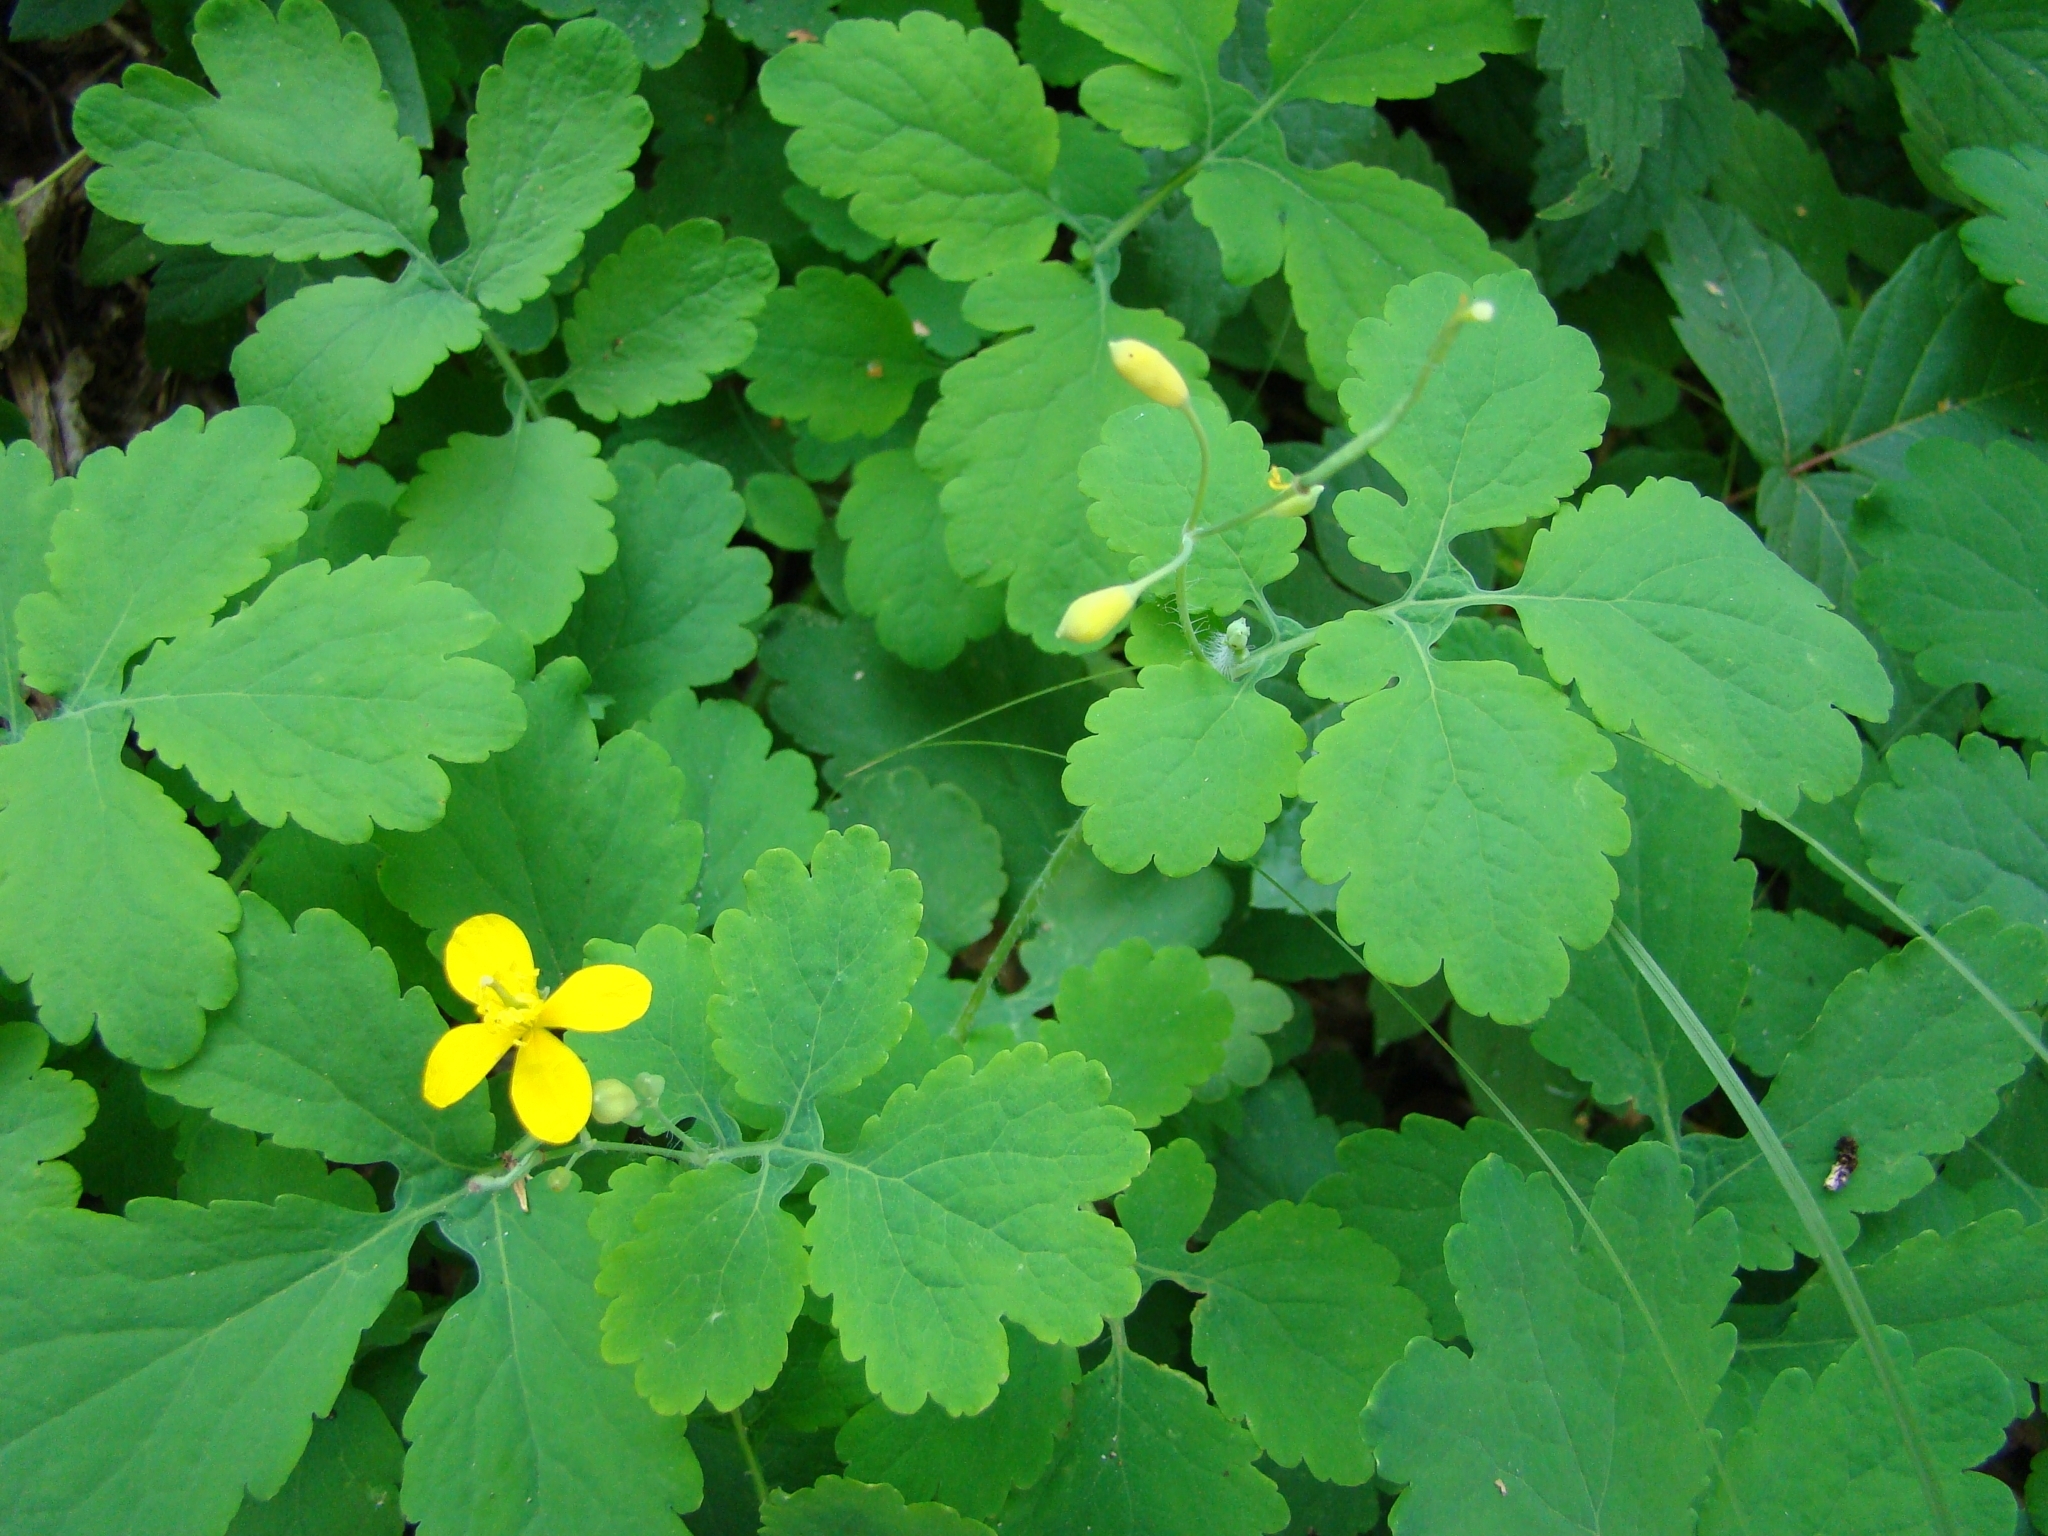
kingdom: Plantae
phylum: Tracheophyta
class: Magnoliopsida
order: Ranunculales
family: Papaveraceae
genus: Chelidonium
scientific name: Chelidonium majus
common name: Greater celandine
